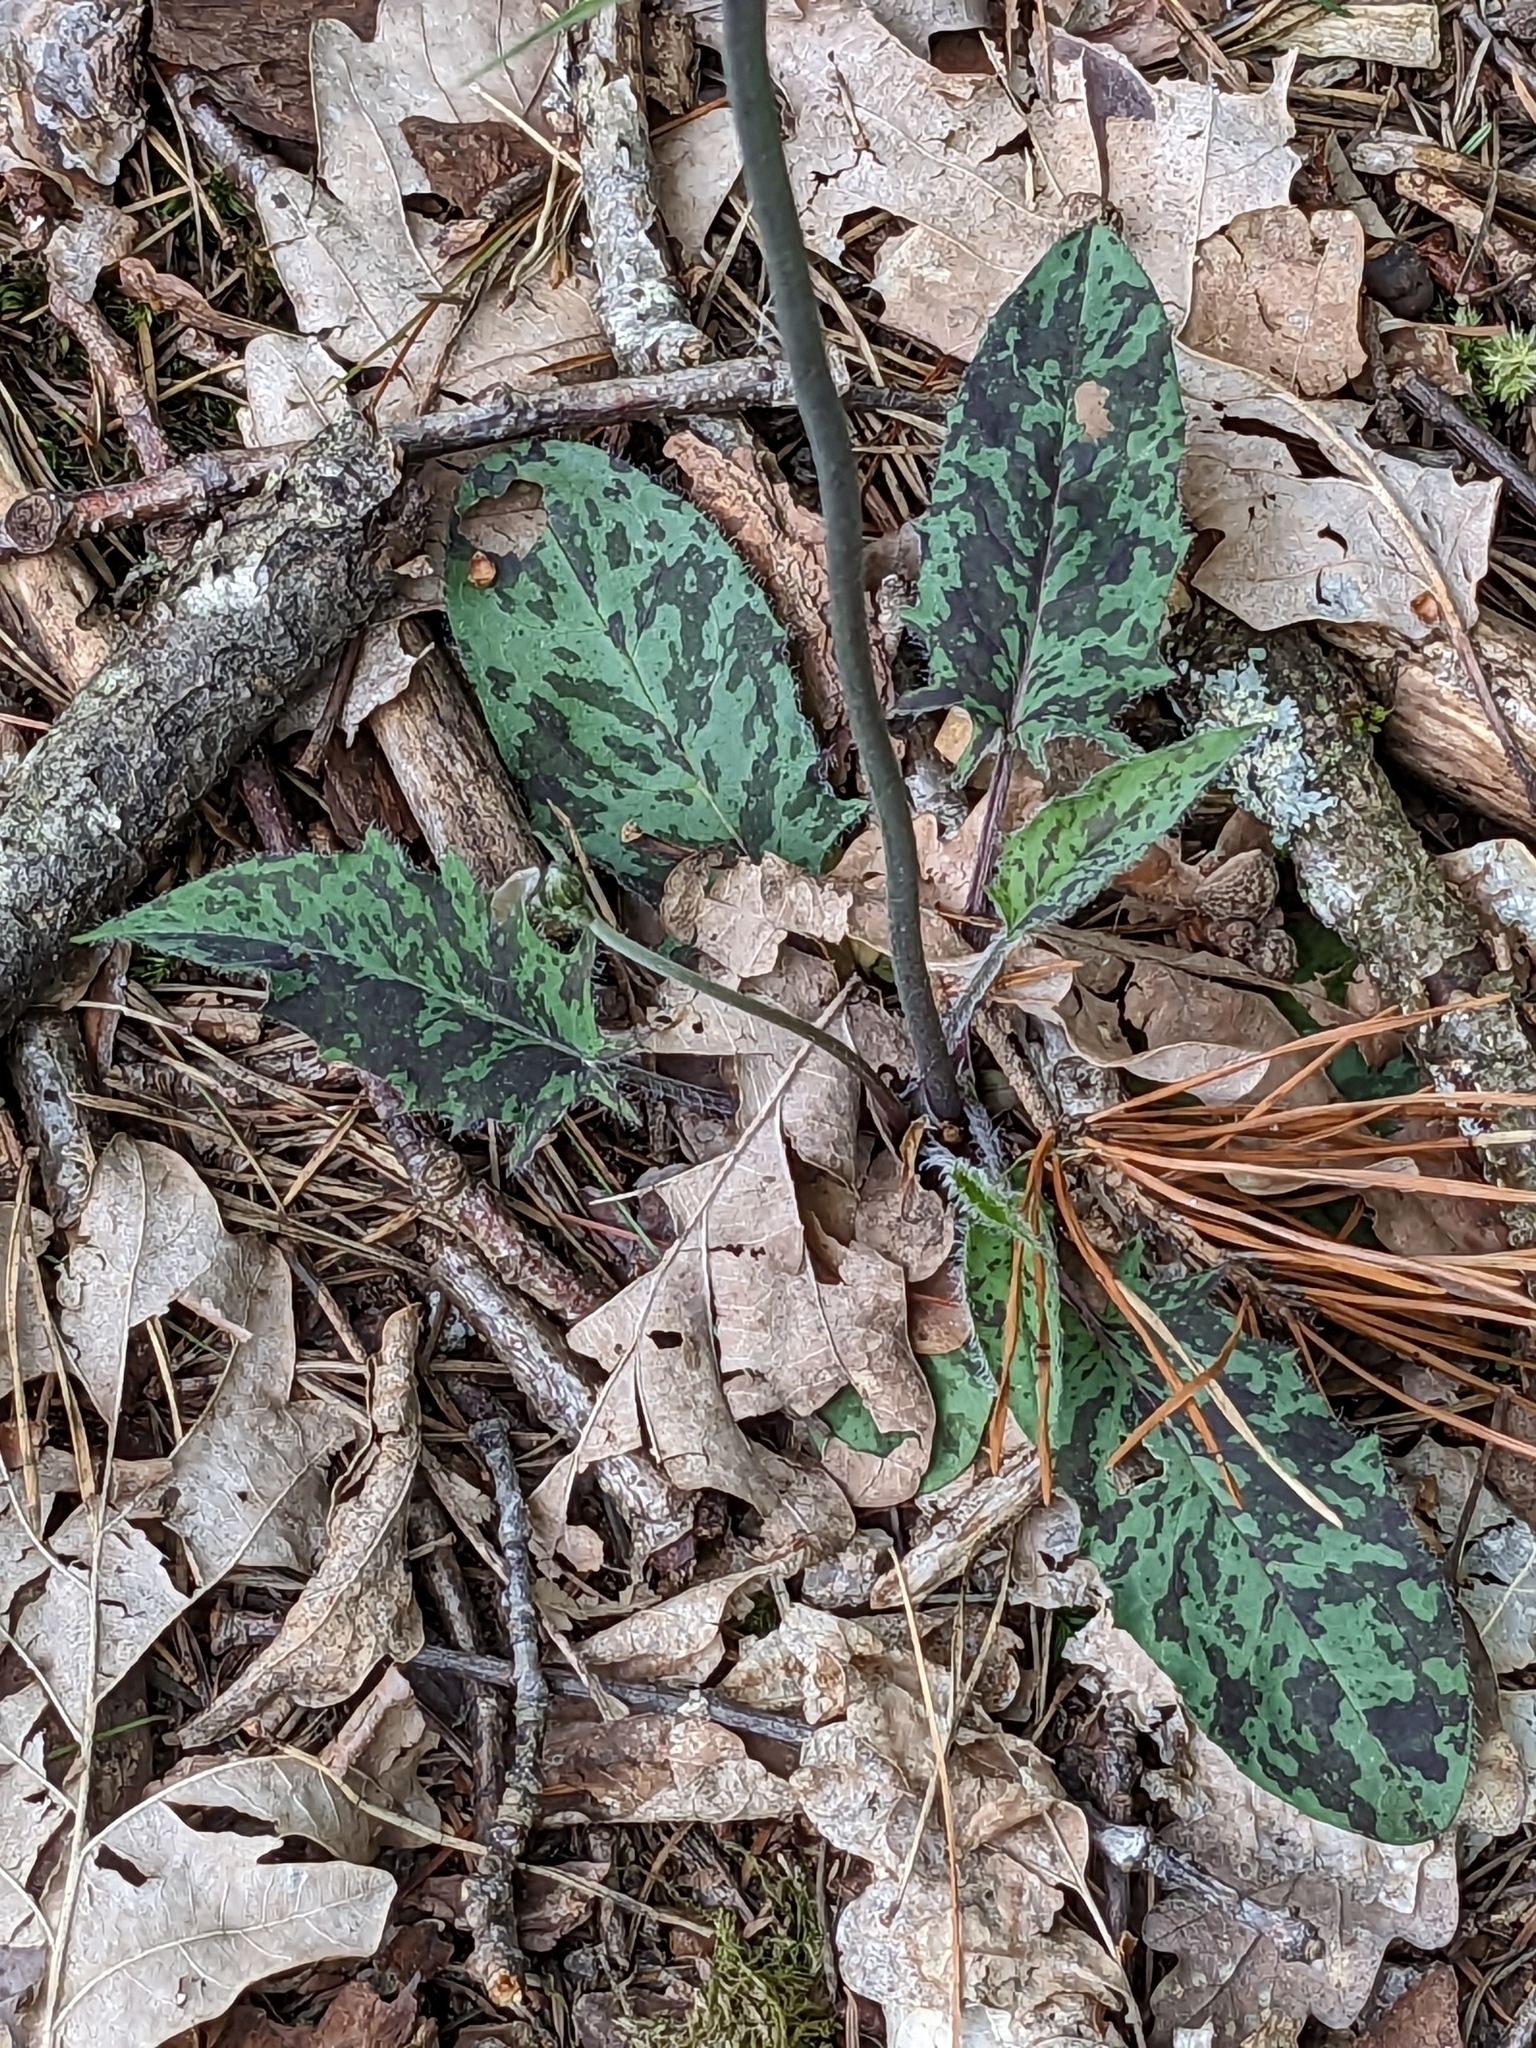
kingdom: Plantae
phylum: Tracheophyta
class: Magnoliopsida
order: Asterales
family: Asteraceae
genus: Hieracium
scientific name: Hieracium maculatum
